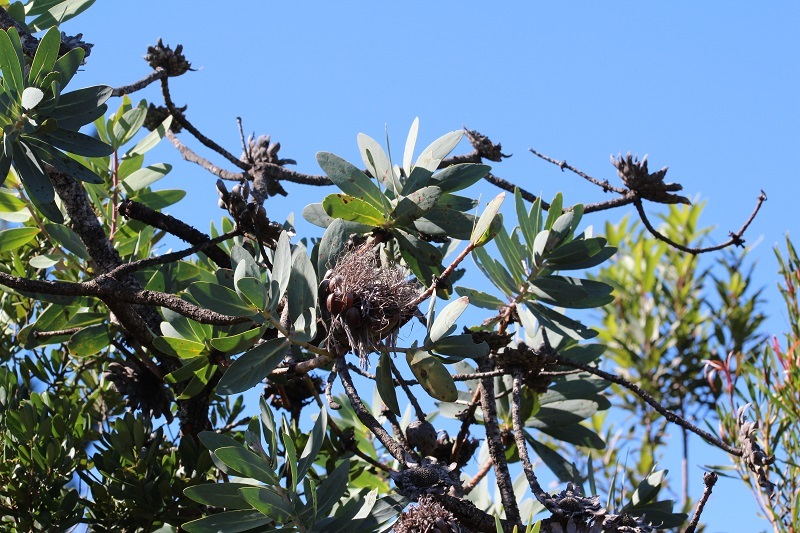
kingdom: Plantae
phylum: Tracheophyta
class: Magnoliopsida
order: Proteales
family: Proteaceae
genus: Protea
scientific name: Protea nitida
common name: Tree protea
